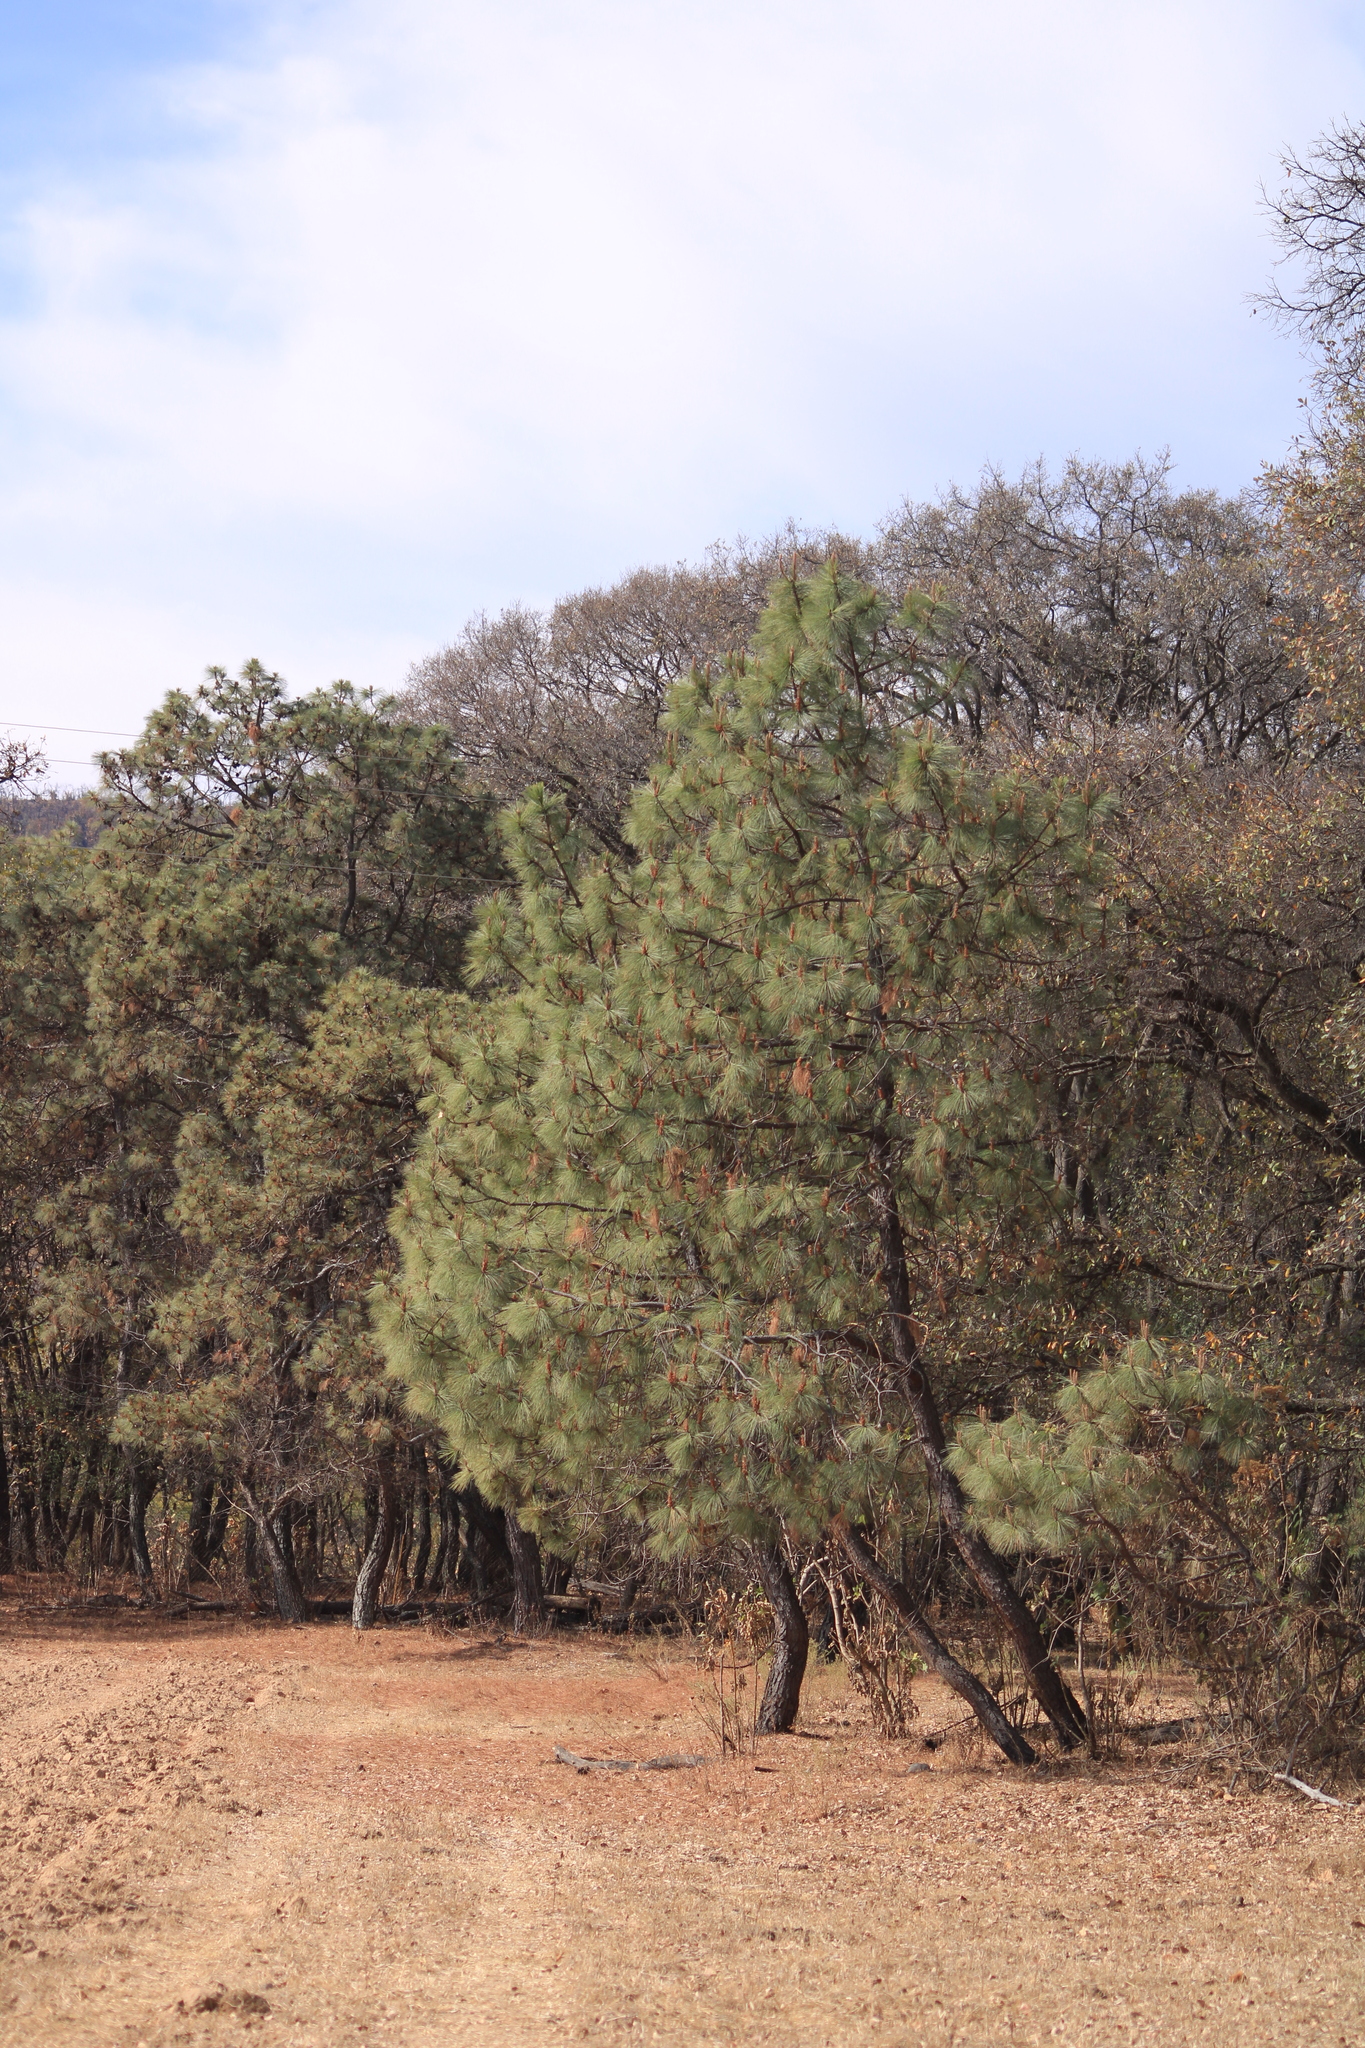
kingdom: Plantae
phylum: Tracheophyta
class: Pinopsida
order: Pinales
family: Pinaceae
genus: Pinus
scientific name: Pinus oocarpa
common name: Egg-cone pine
